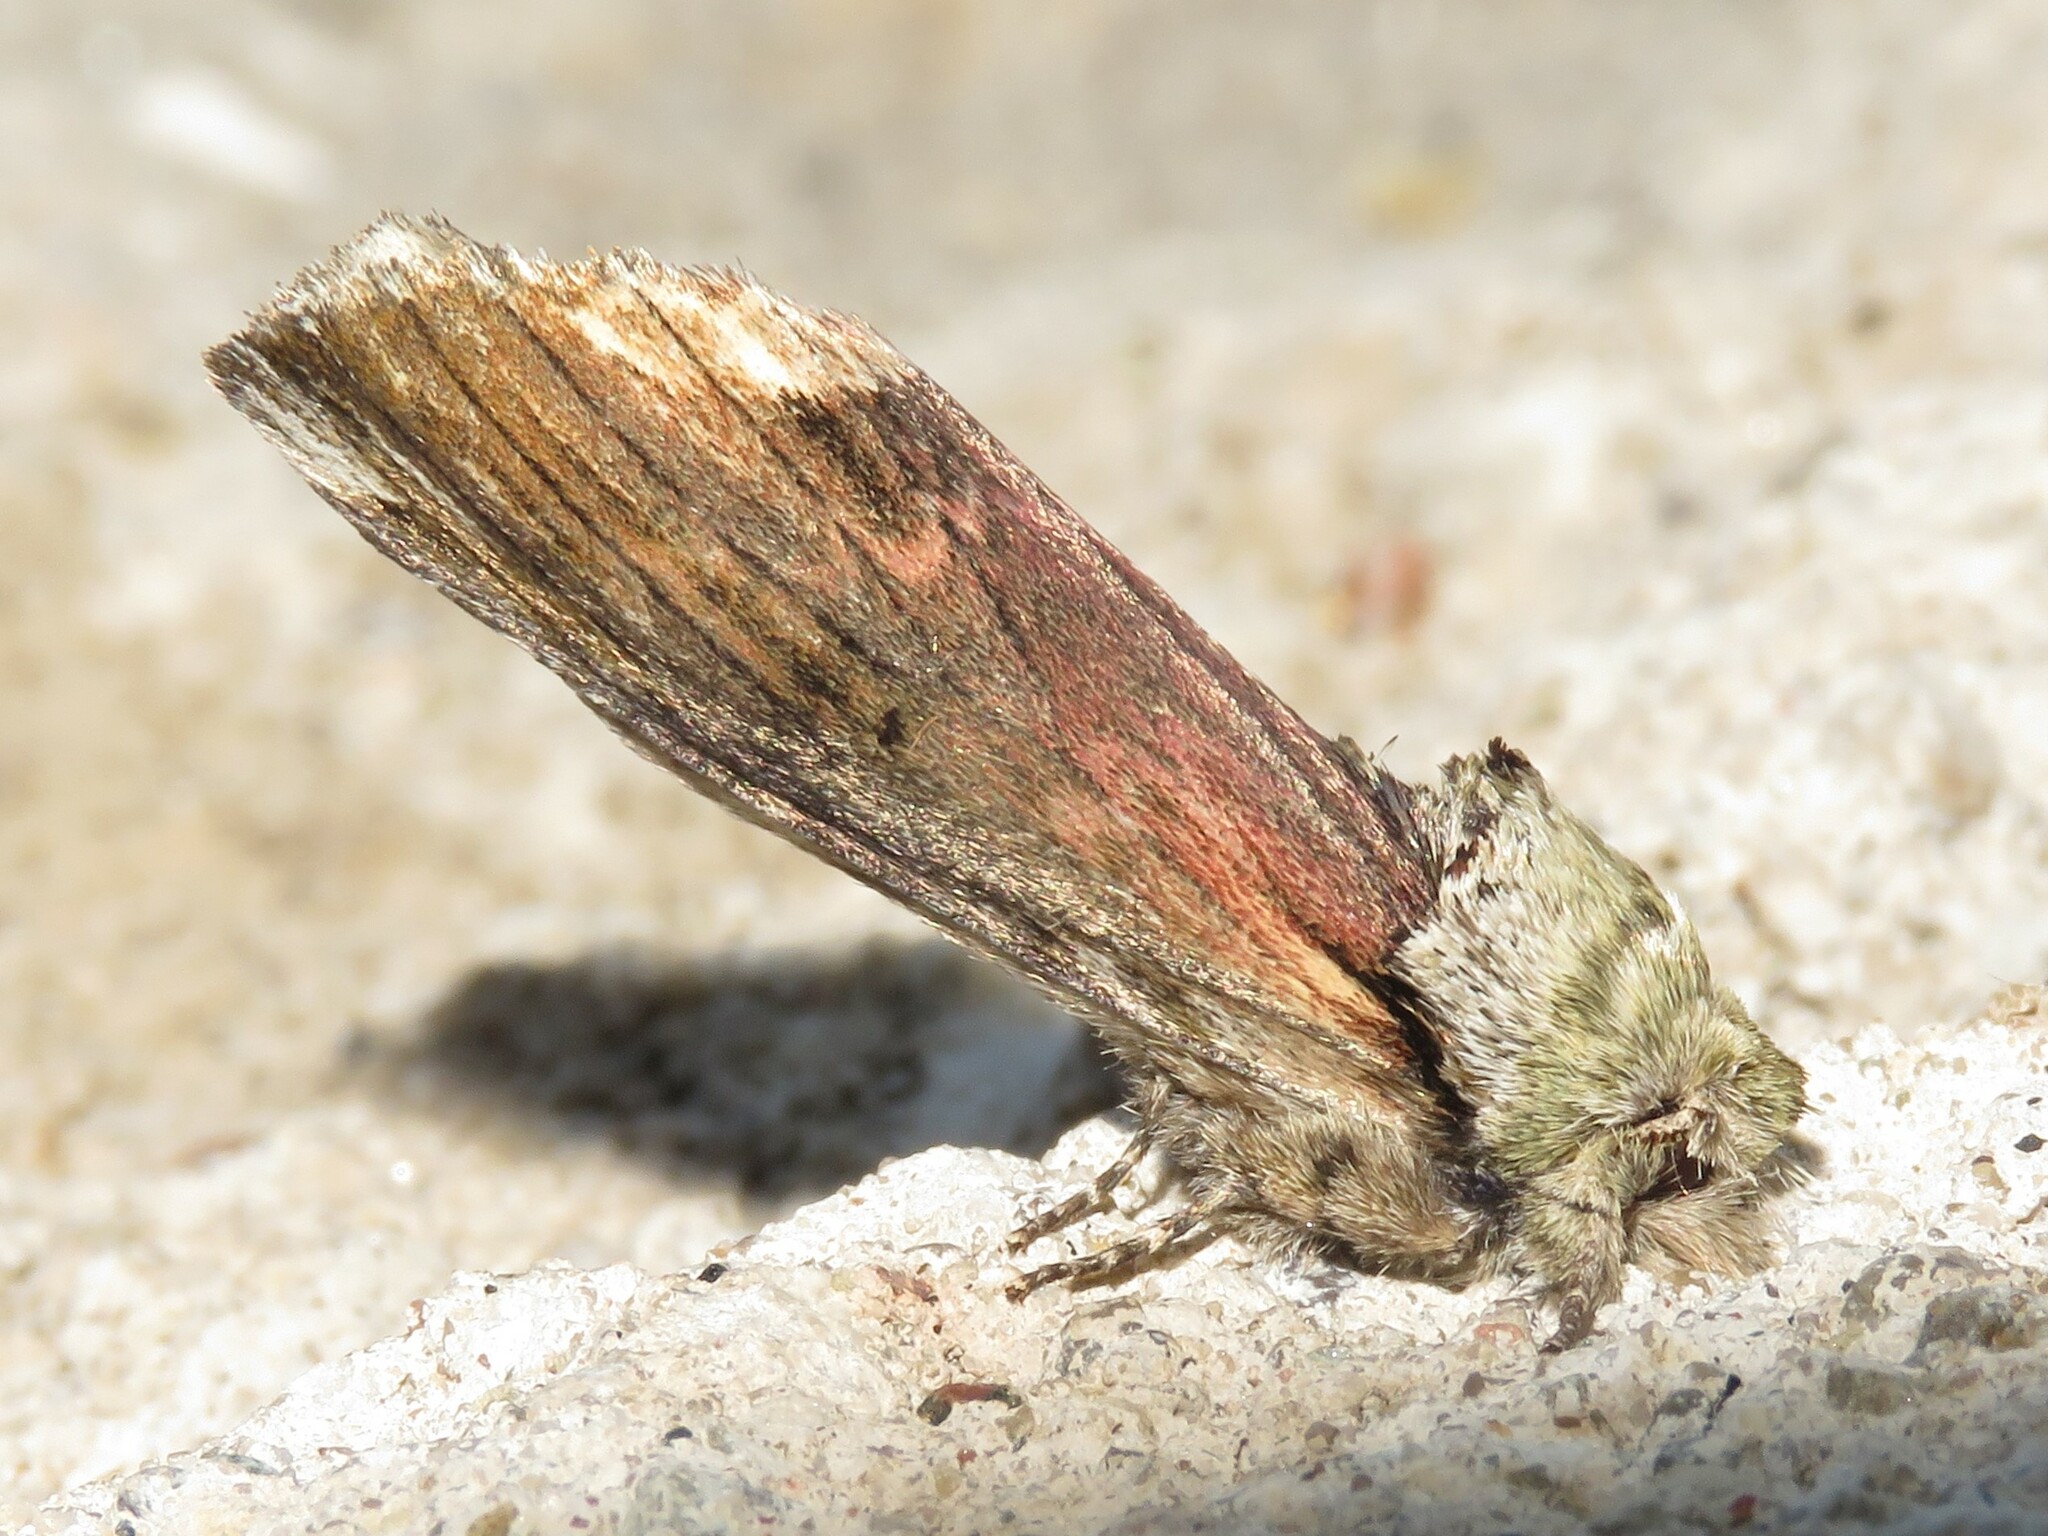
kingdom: Animalia
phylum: Arthropoda
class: Insecta
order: Lepidoptera
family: Notodontidae
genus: Schizura
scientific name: Schizura
